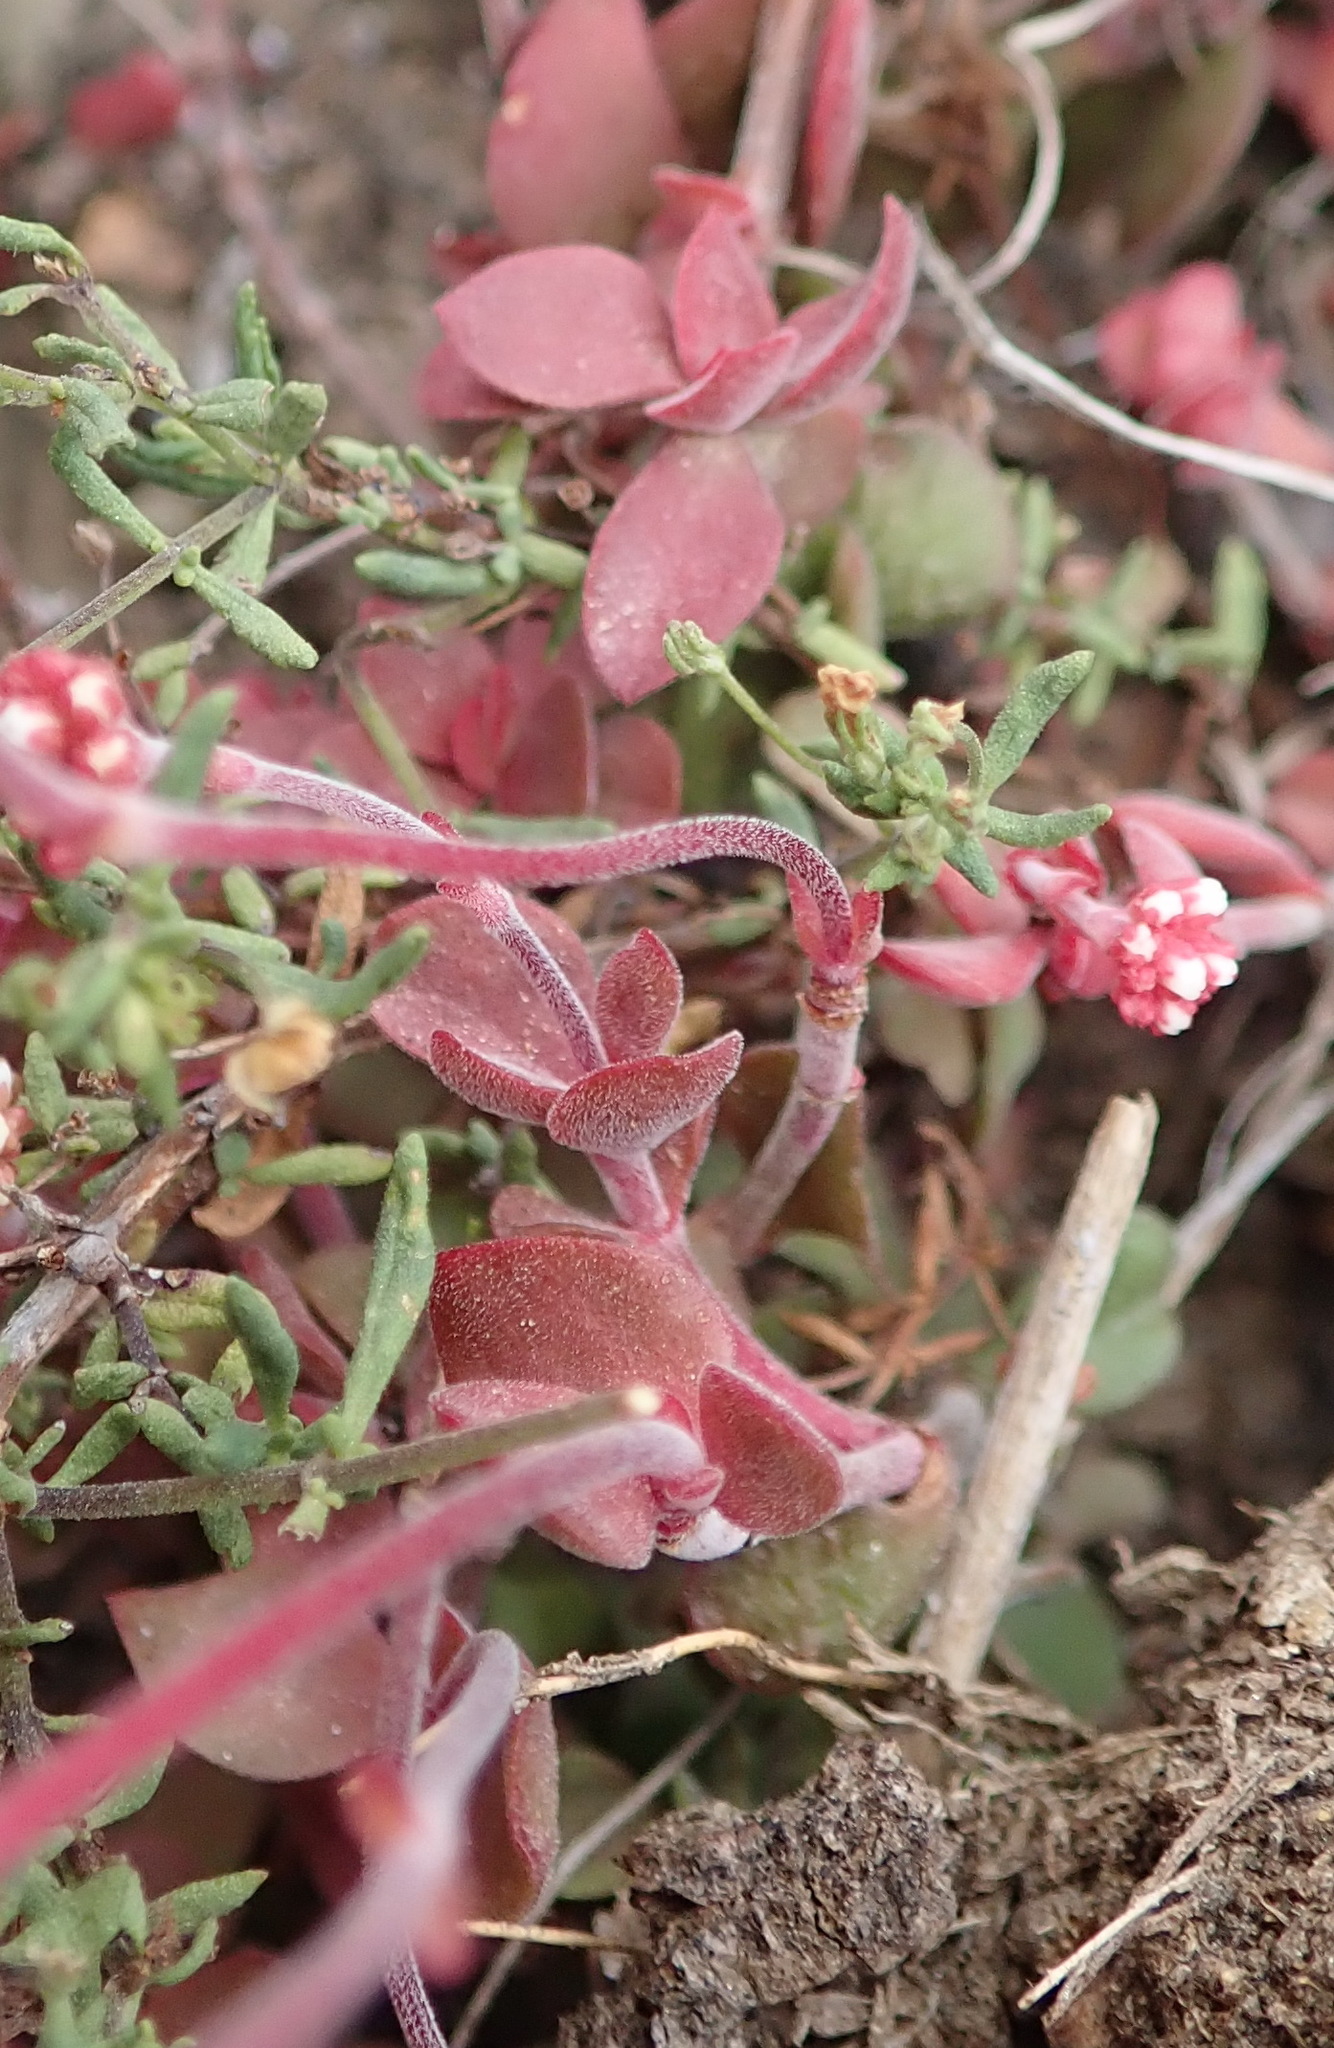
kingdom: Plantae
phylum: Tracheophyta
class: Magnoliopsida
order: Saxifragales
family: Crassulaceae
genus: Crassula
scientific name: Crassula pubescens
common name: Jersey pigmyweed
